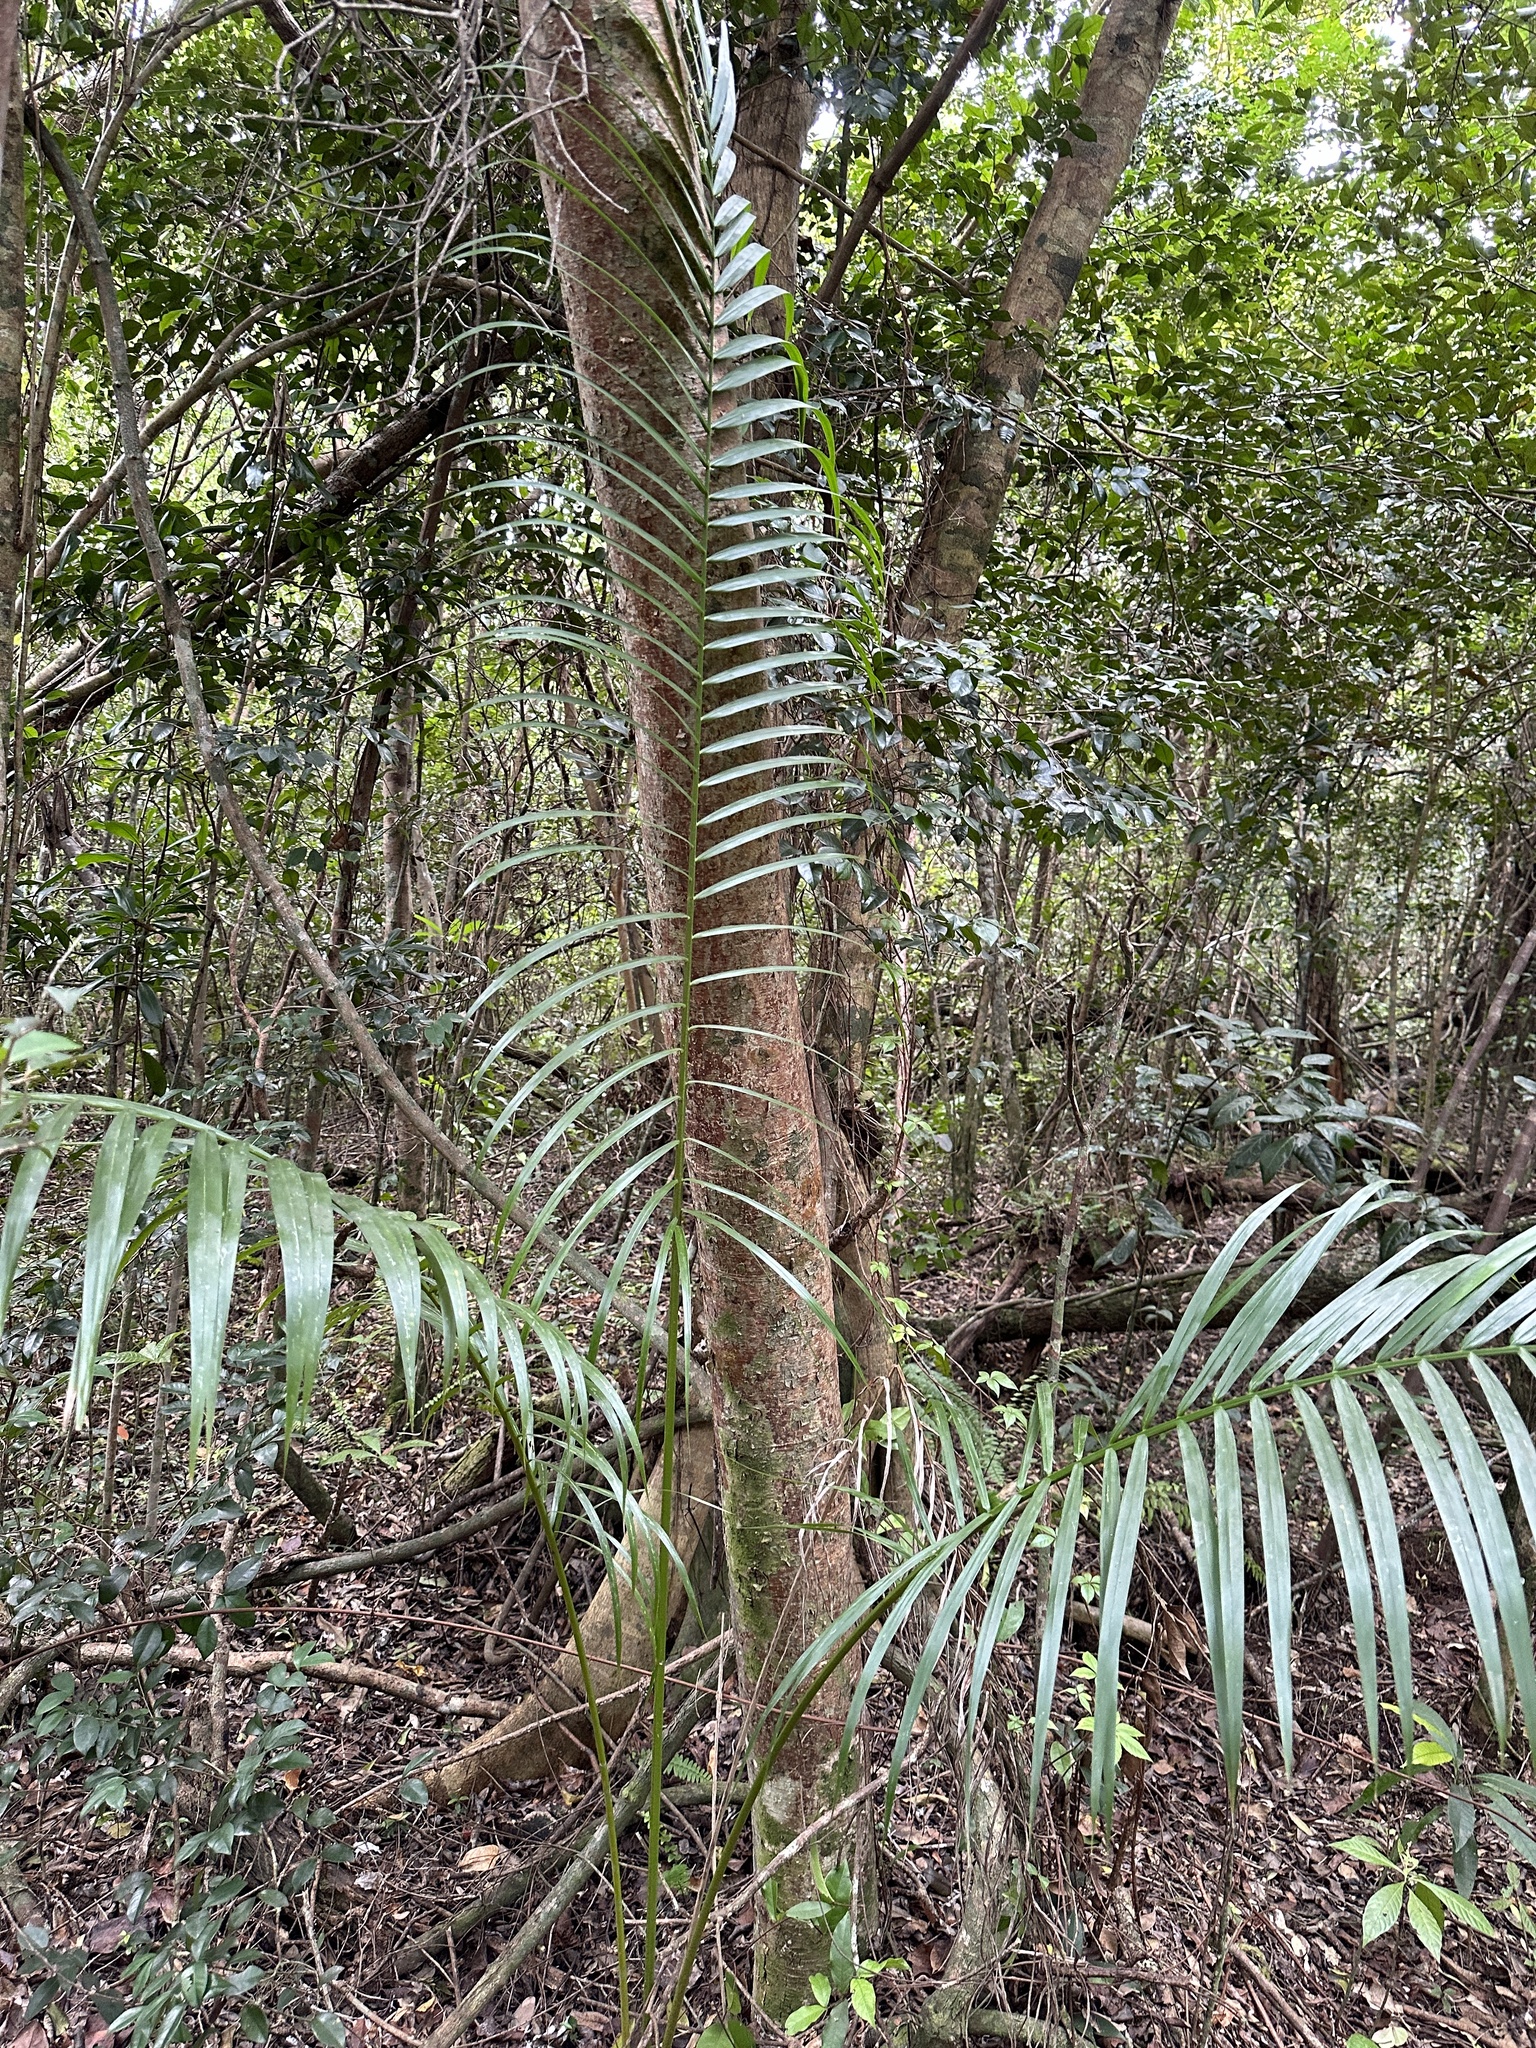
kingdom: Plantae
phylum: Tracheophyta
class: Liliopsida
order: Arecales
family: Arecaceae
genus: Roystonea
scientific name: Roystonea regia
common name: Florida royal palm
